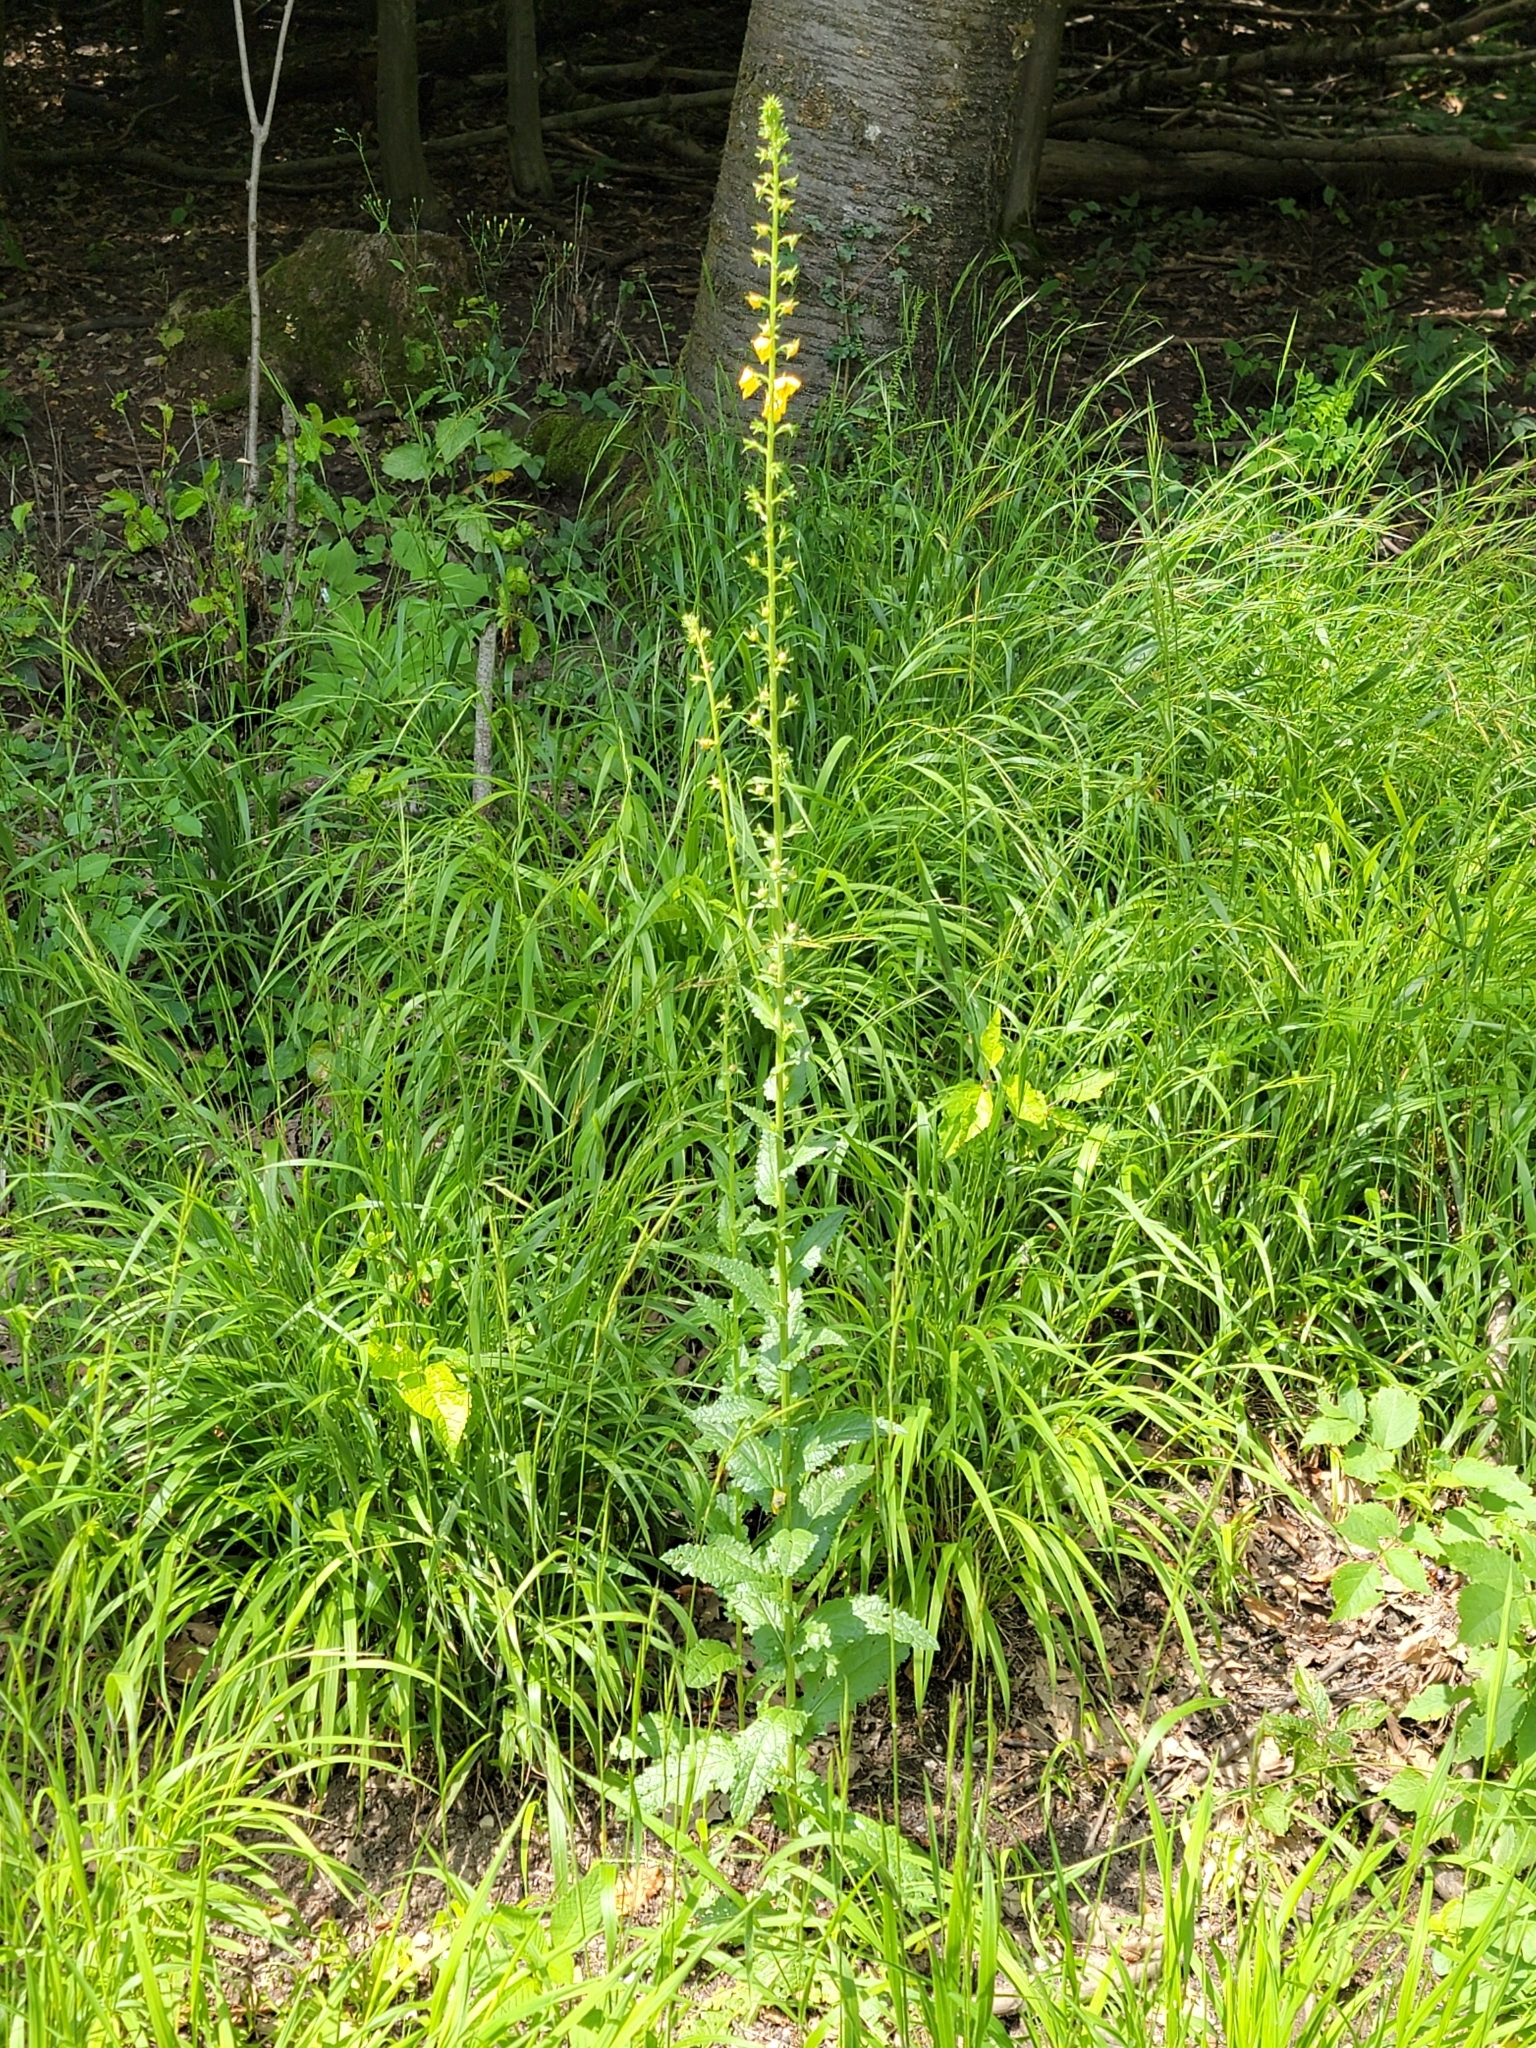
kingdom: Plantae
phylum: Tracheophyta
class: Magnoliopsida
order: Lamiales
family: Scrophulariaceae
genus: Verbascum
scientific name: Verbascum blattaria
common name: Moth mullein
